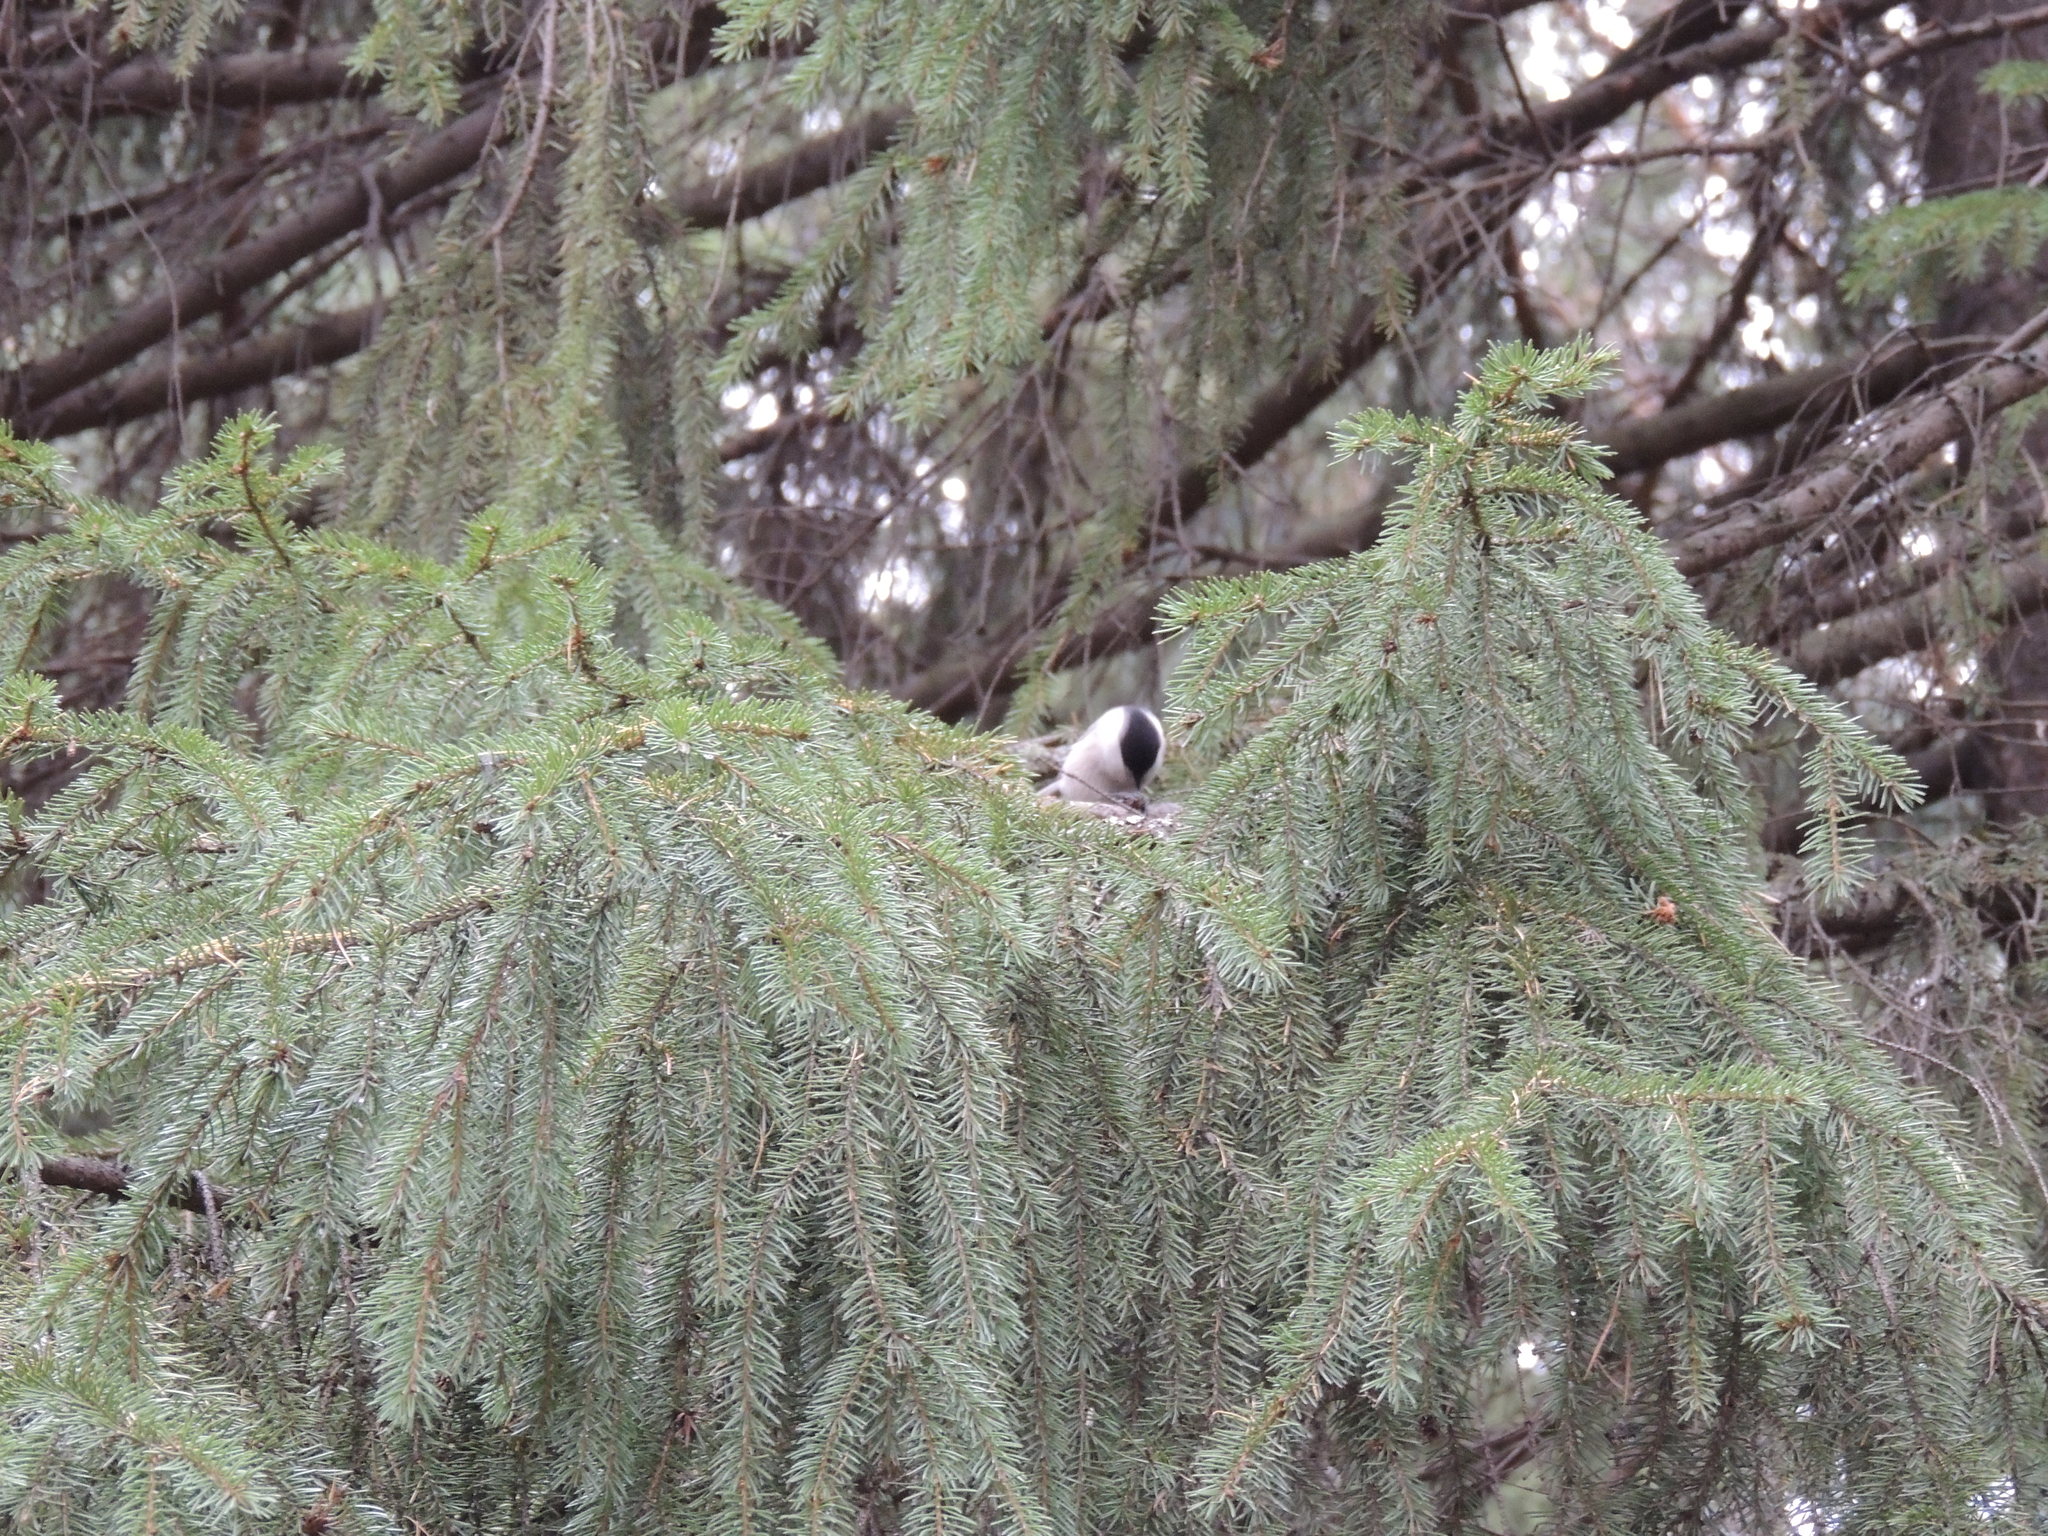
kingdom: Animalia
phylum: Chordata
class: Aves
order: Passeriformes
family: Paridae
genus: Poecile
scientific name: Poecile montanus
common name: Willow tit
